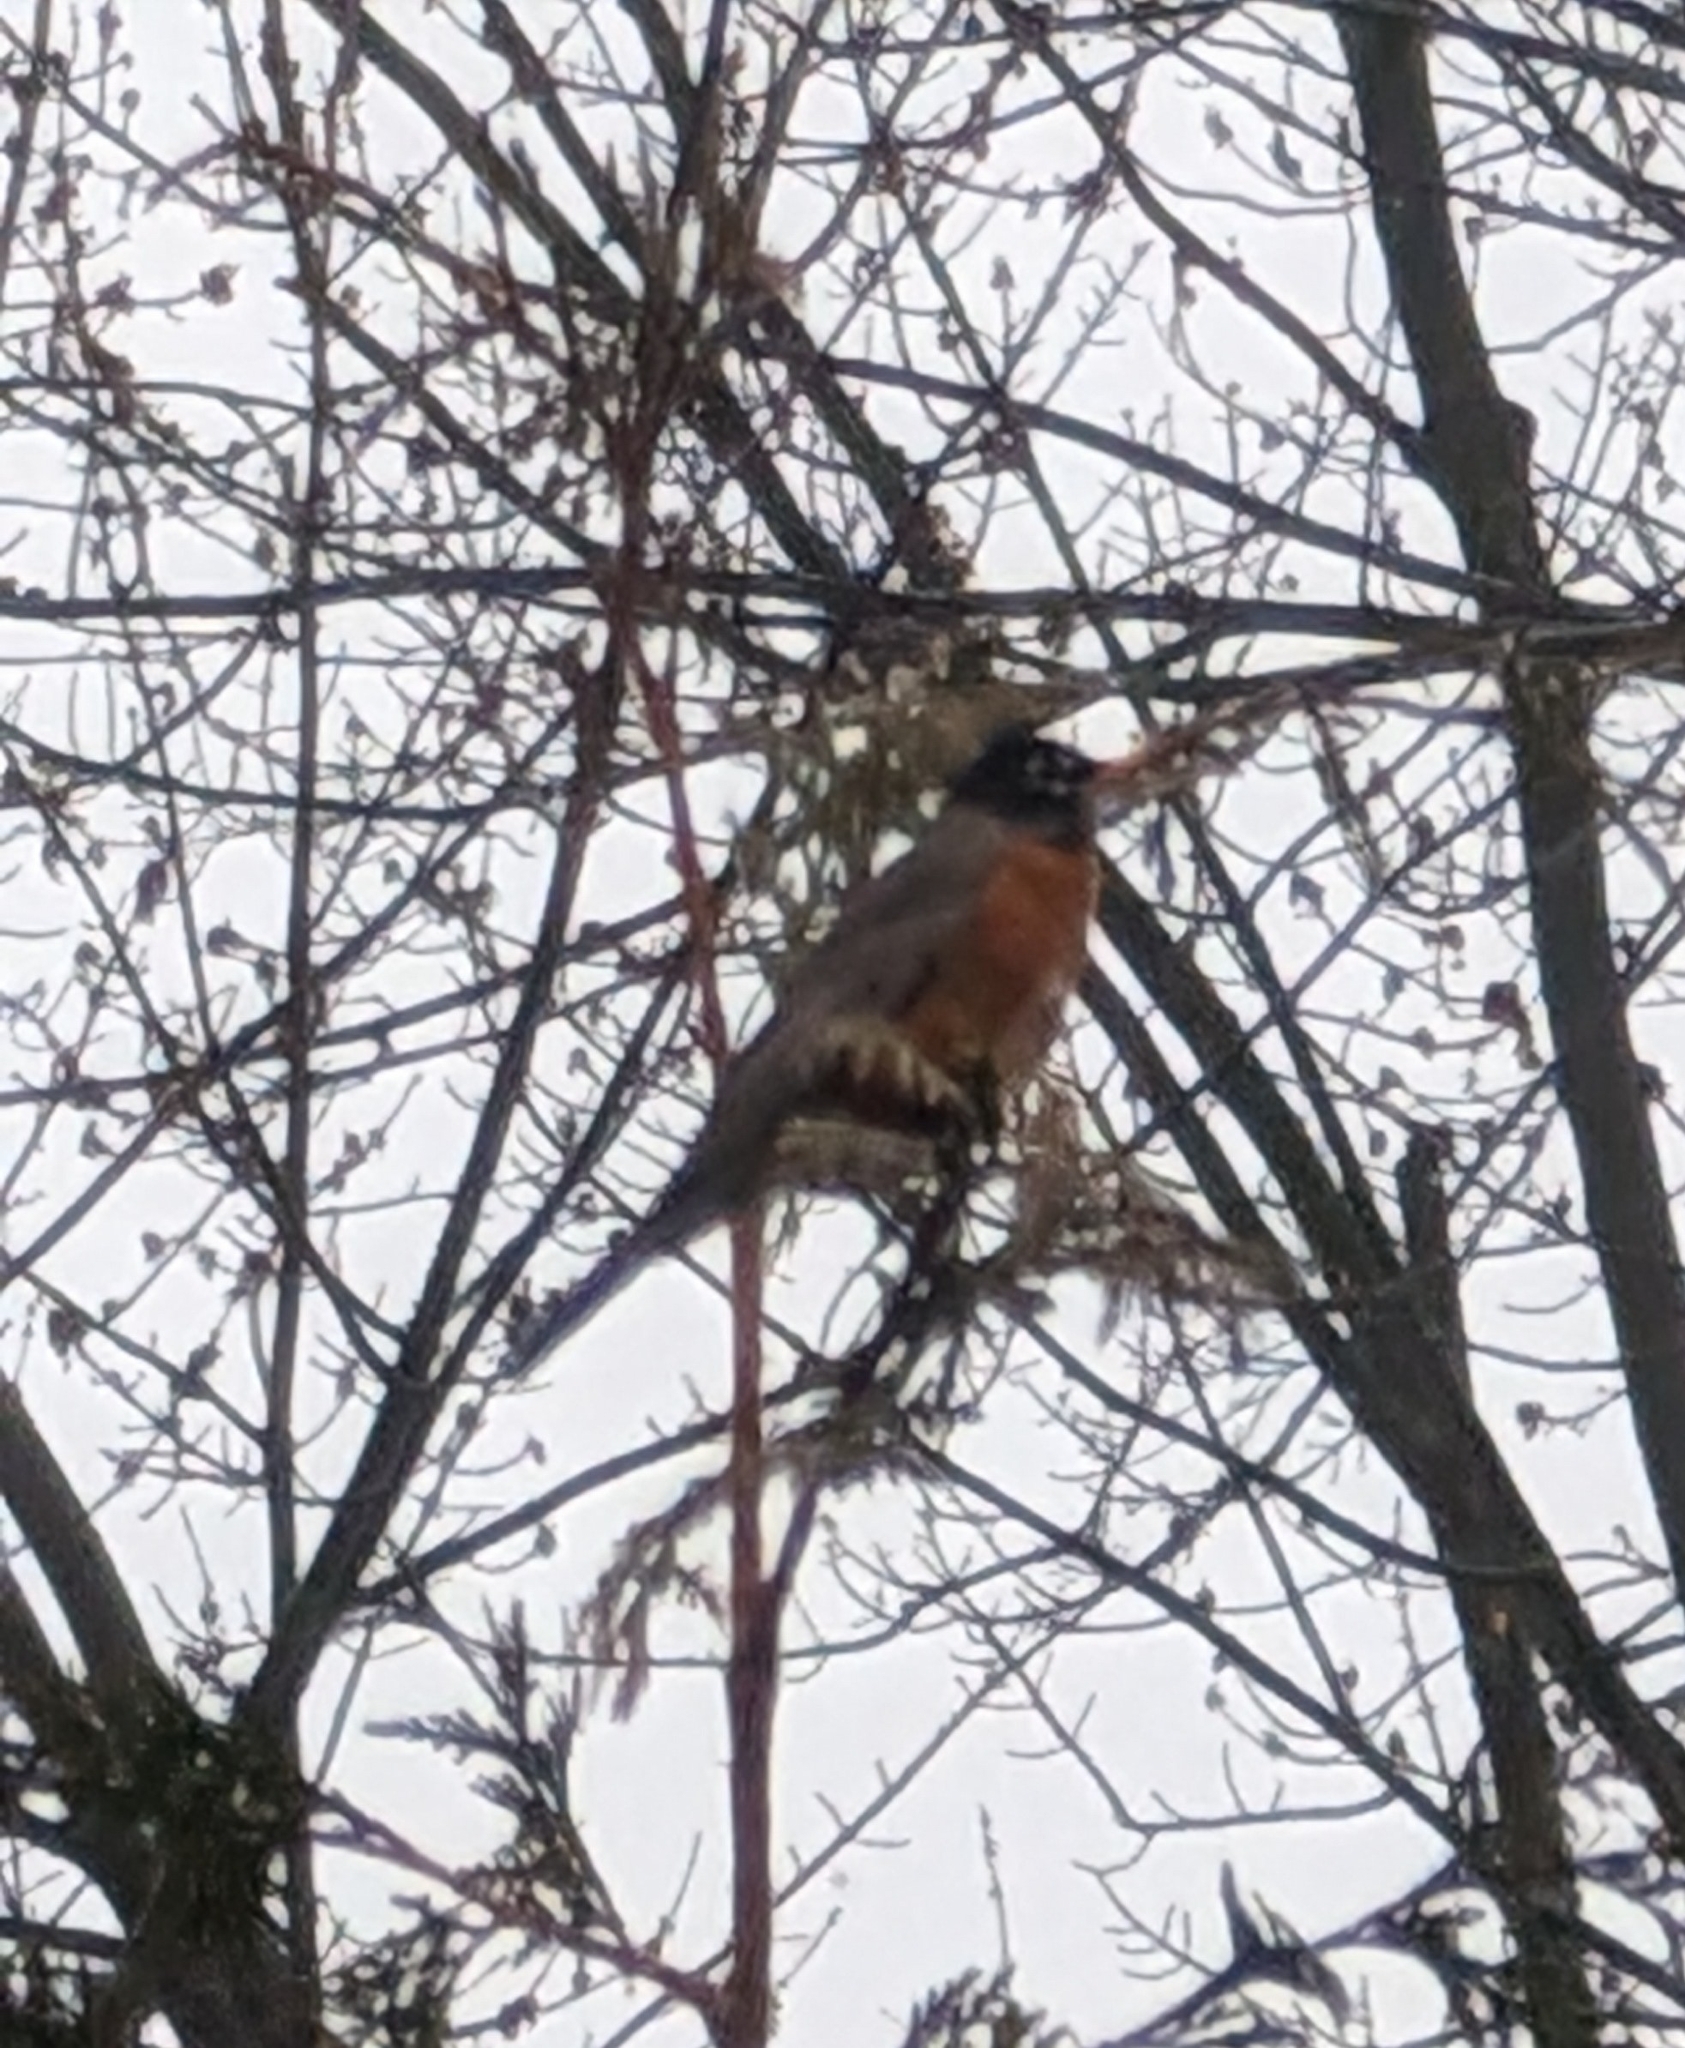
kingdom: Animalia
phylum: Chordata
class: Aves
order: Passeriformes
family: Turdidae
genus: Turdus
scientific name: Turdus migratorius
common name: American robin
